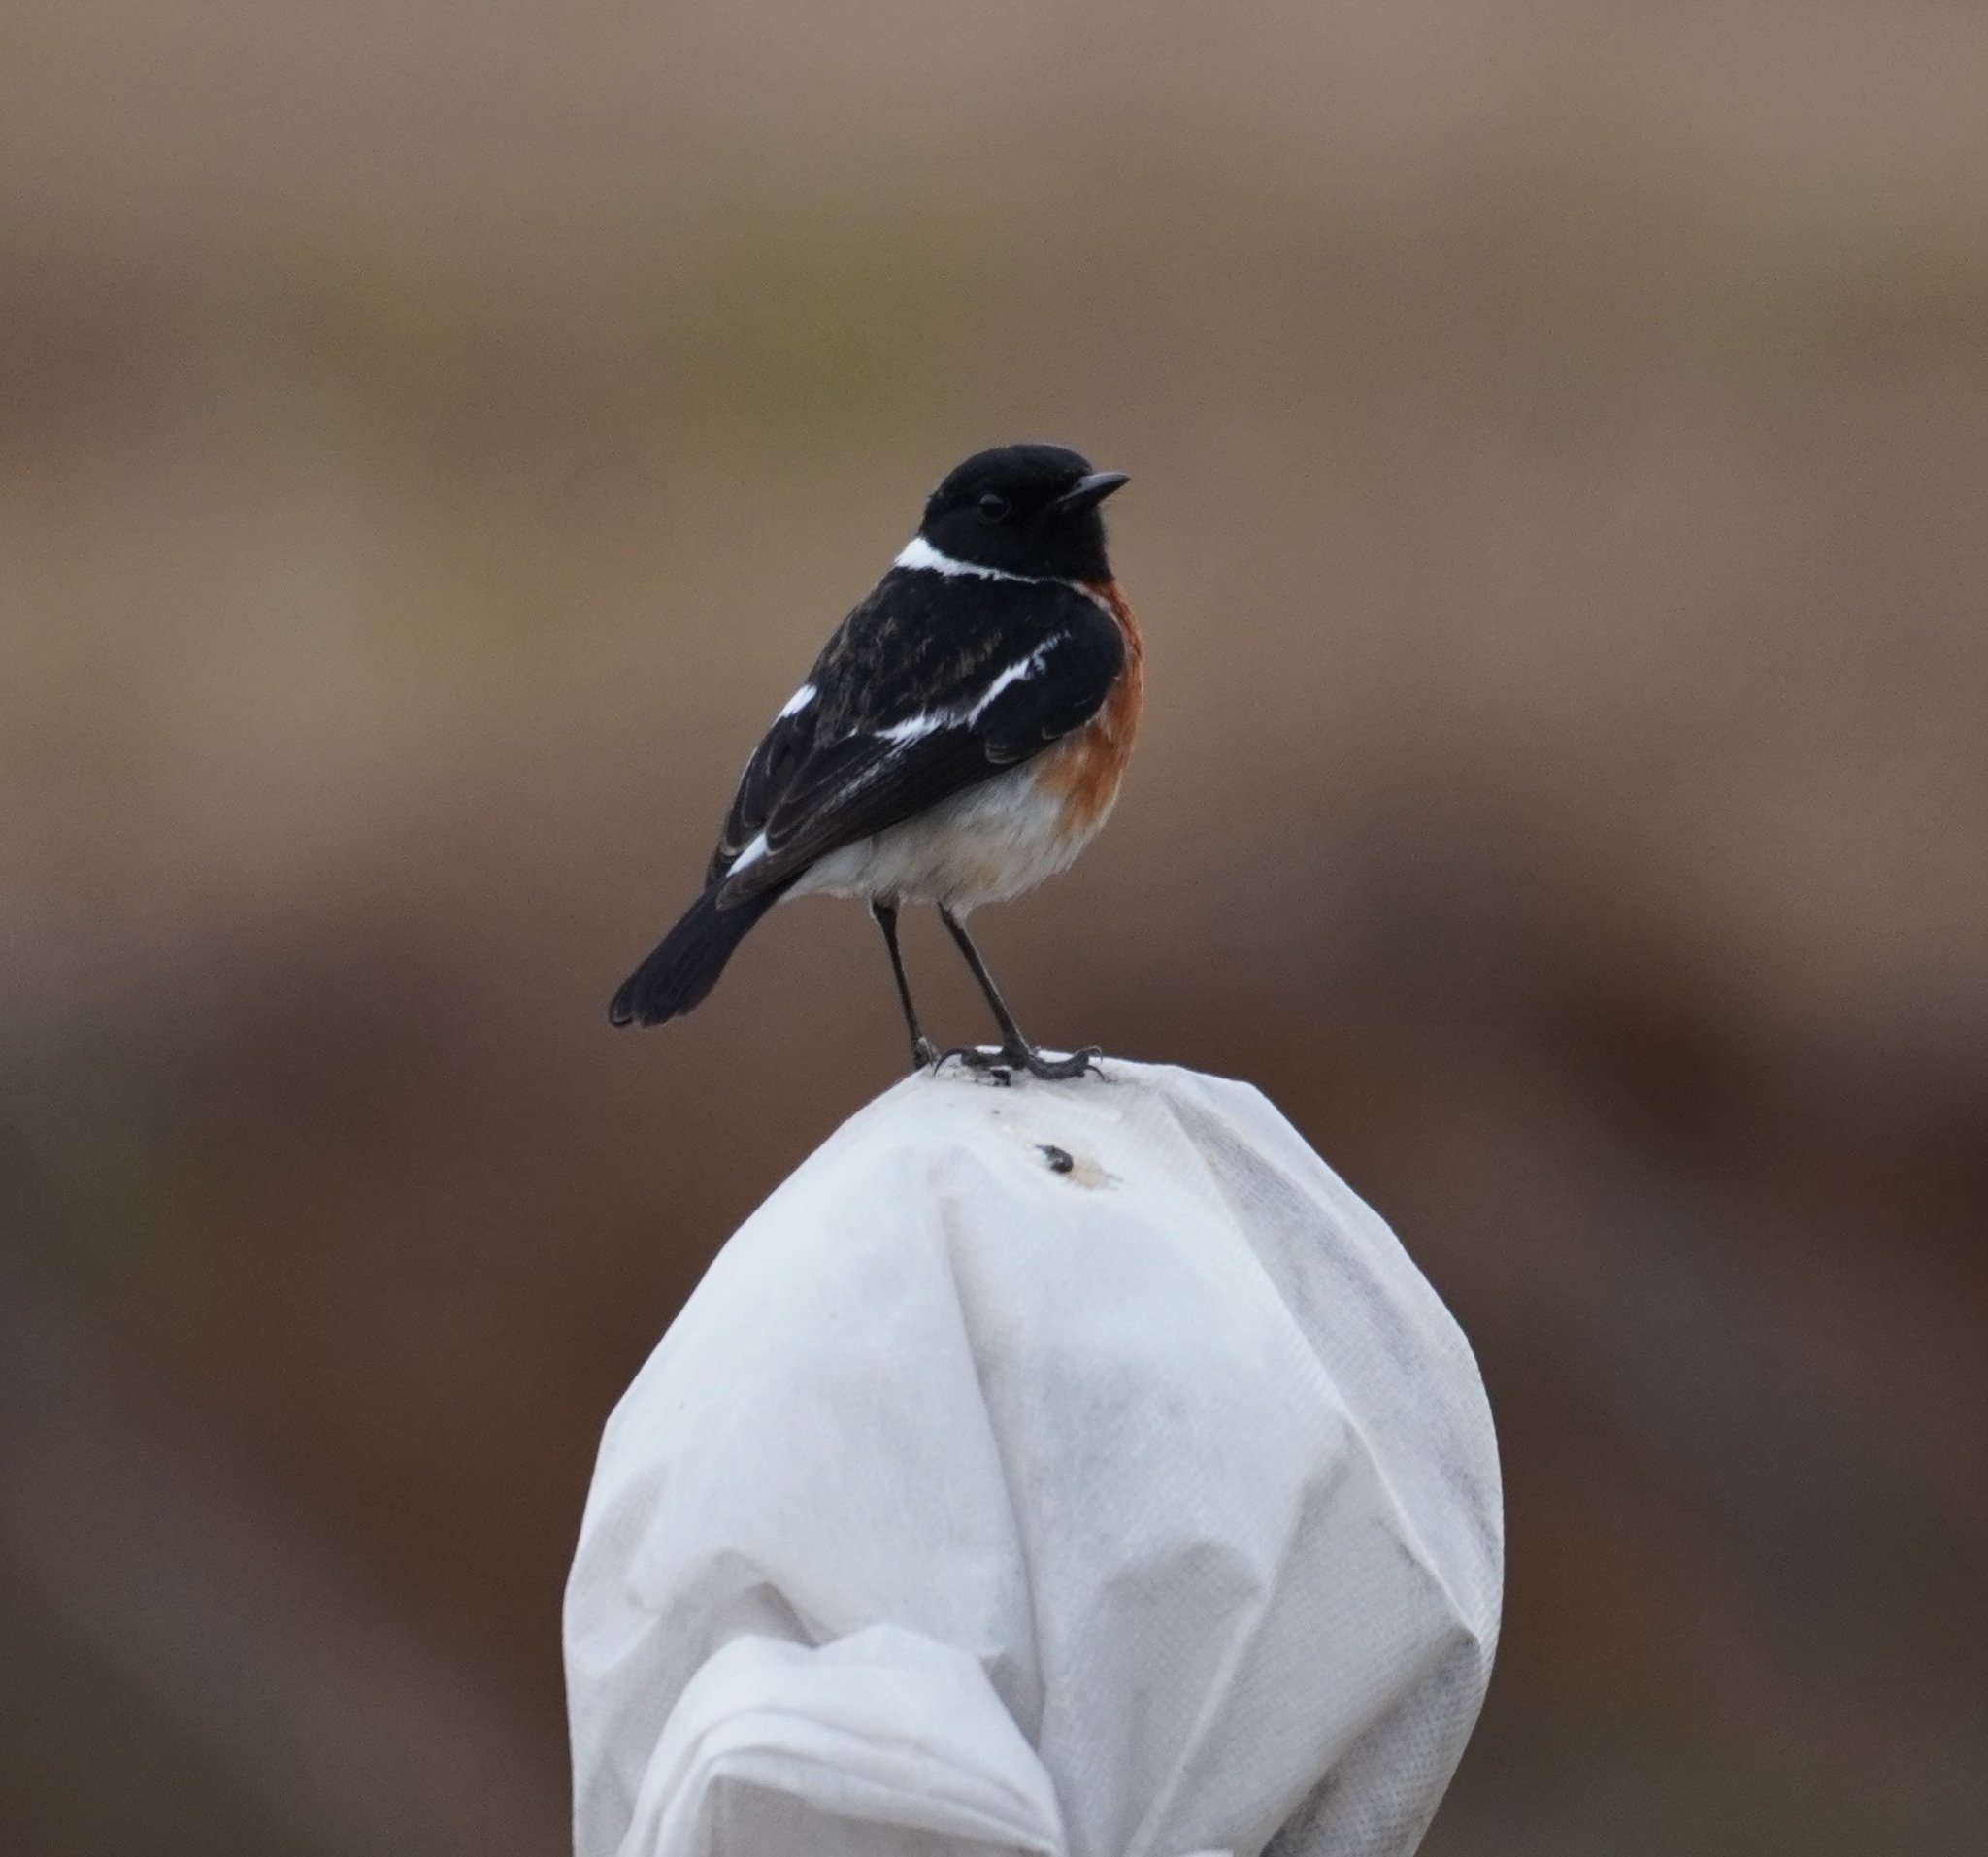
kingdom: Animalia
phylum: Chordata
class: Aves
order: Passeriformes
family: Muscicapidae
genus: Saxicola
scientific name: Saxicola torquatus
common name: African stonechat
